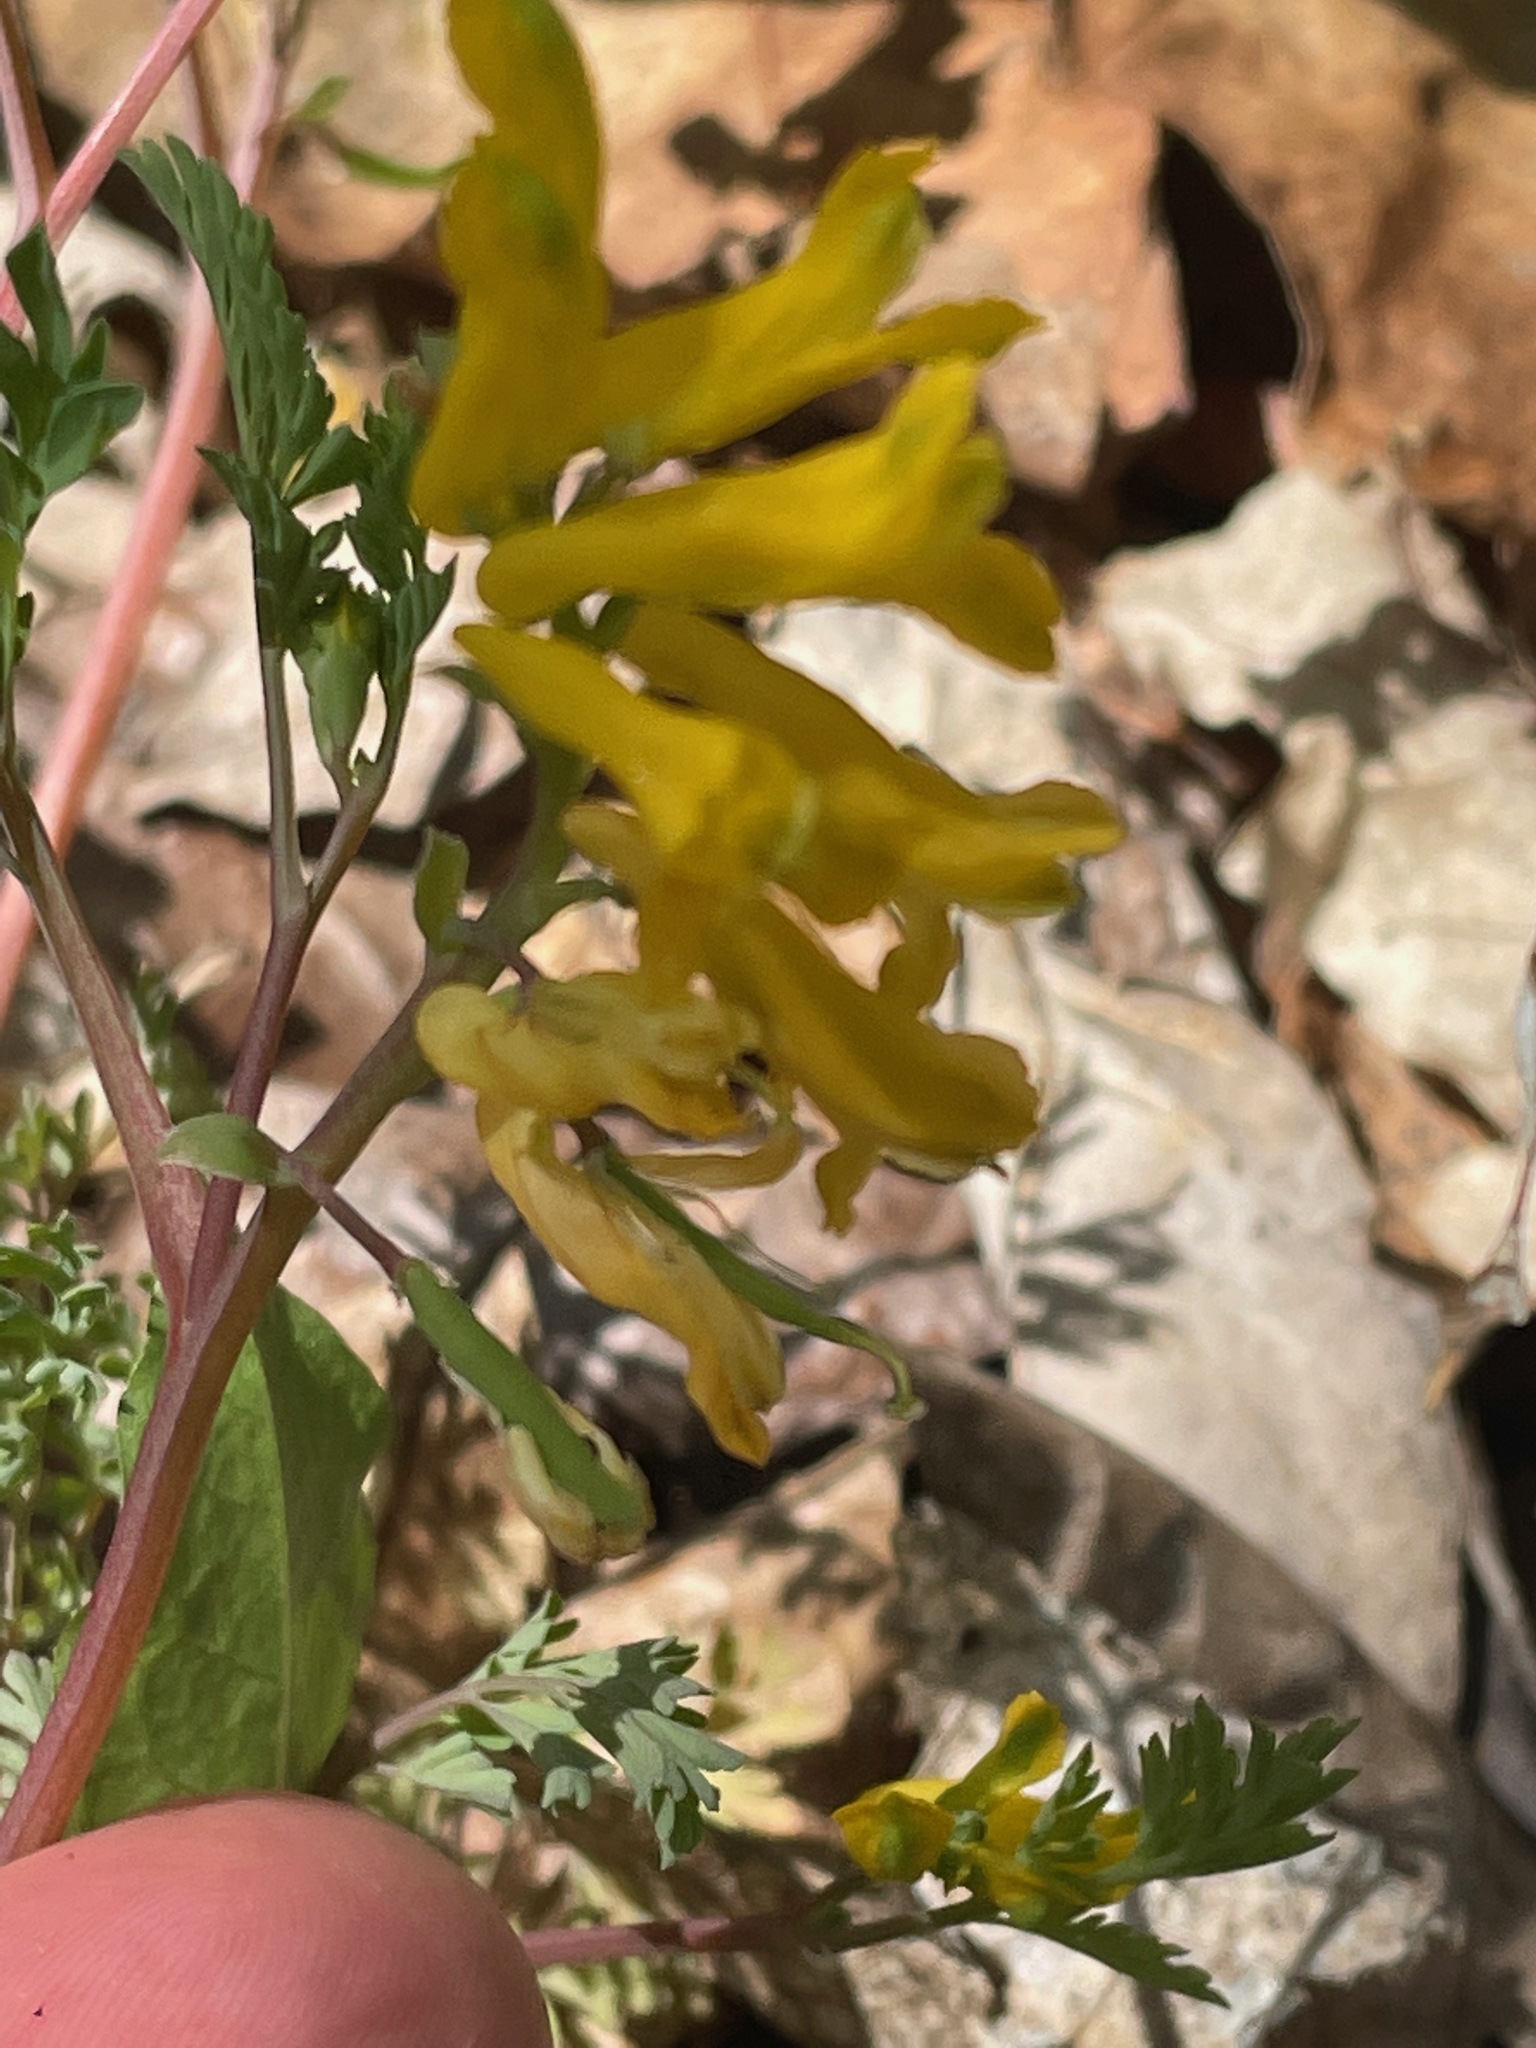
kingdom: Plantae
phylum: Tracheophyta
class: Magnoliopsida
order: Ranunculales
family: Papaveraceae
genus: Corydalis
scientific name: Corydalis aurea
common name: Golden corydalis
